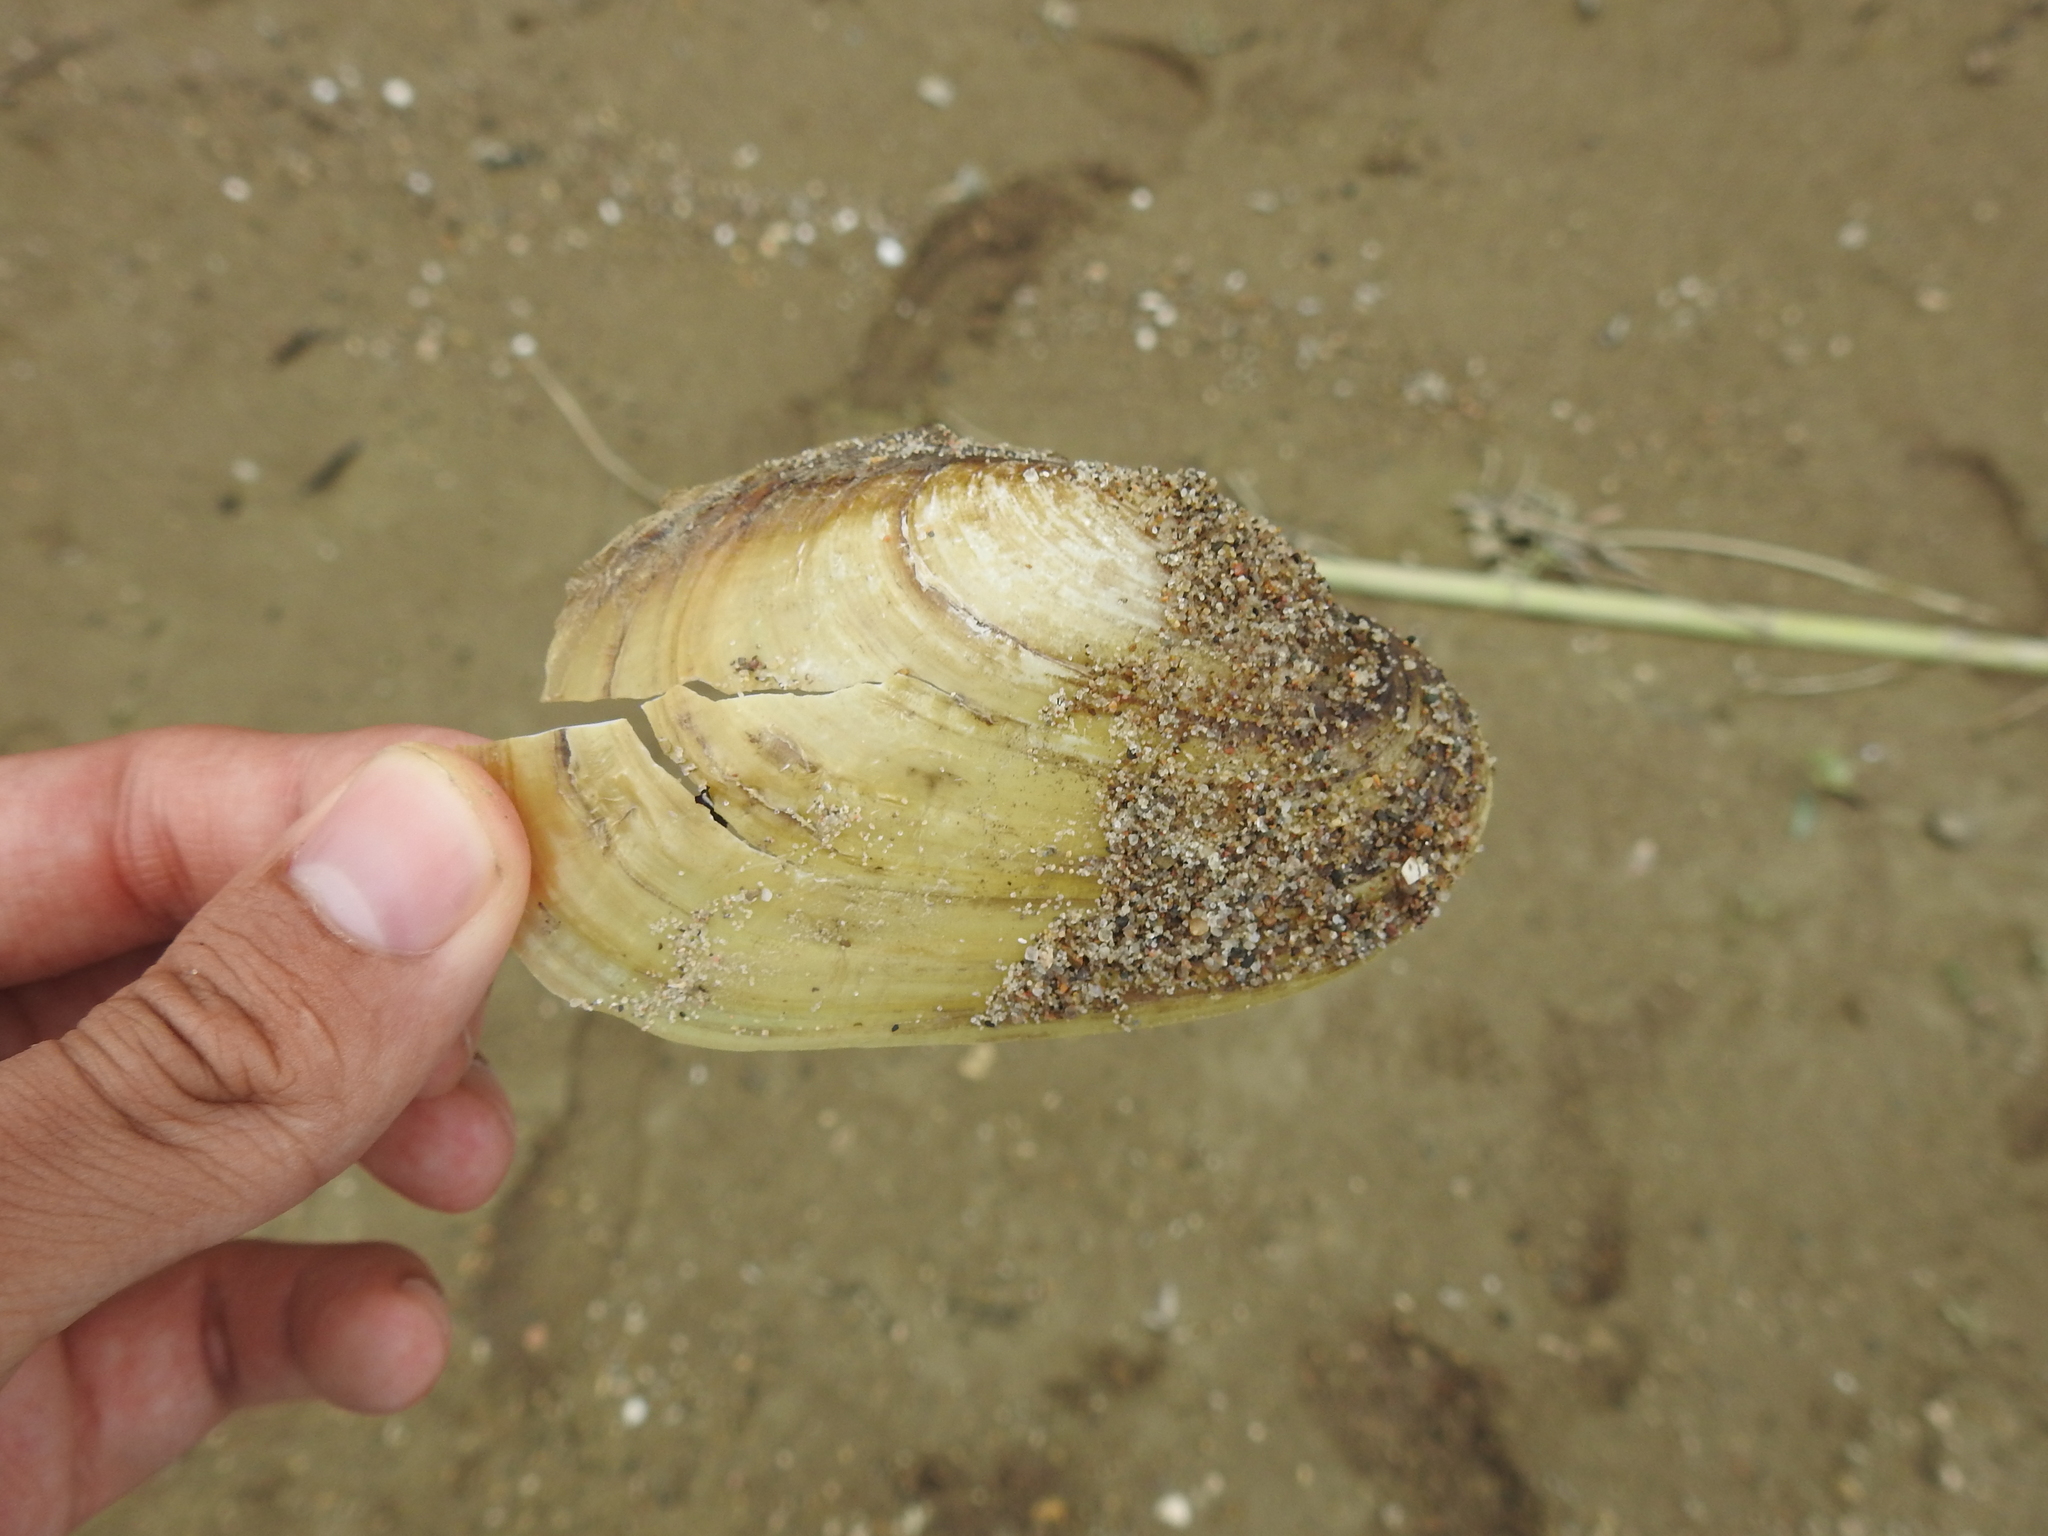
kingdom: Animalia
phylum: Mollusca
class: Bivalvia
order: Unionida
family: Unionidae
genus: Potamilus
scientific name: Potamilus fragilis
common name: Fragile papershell
